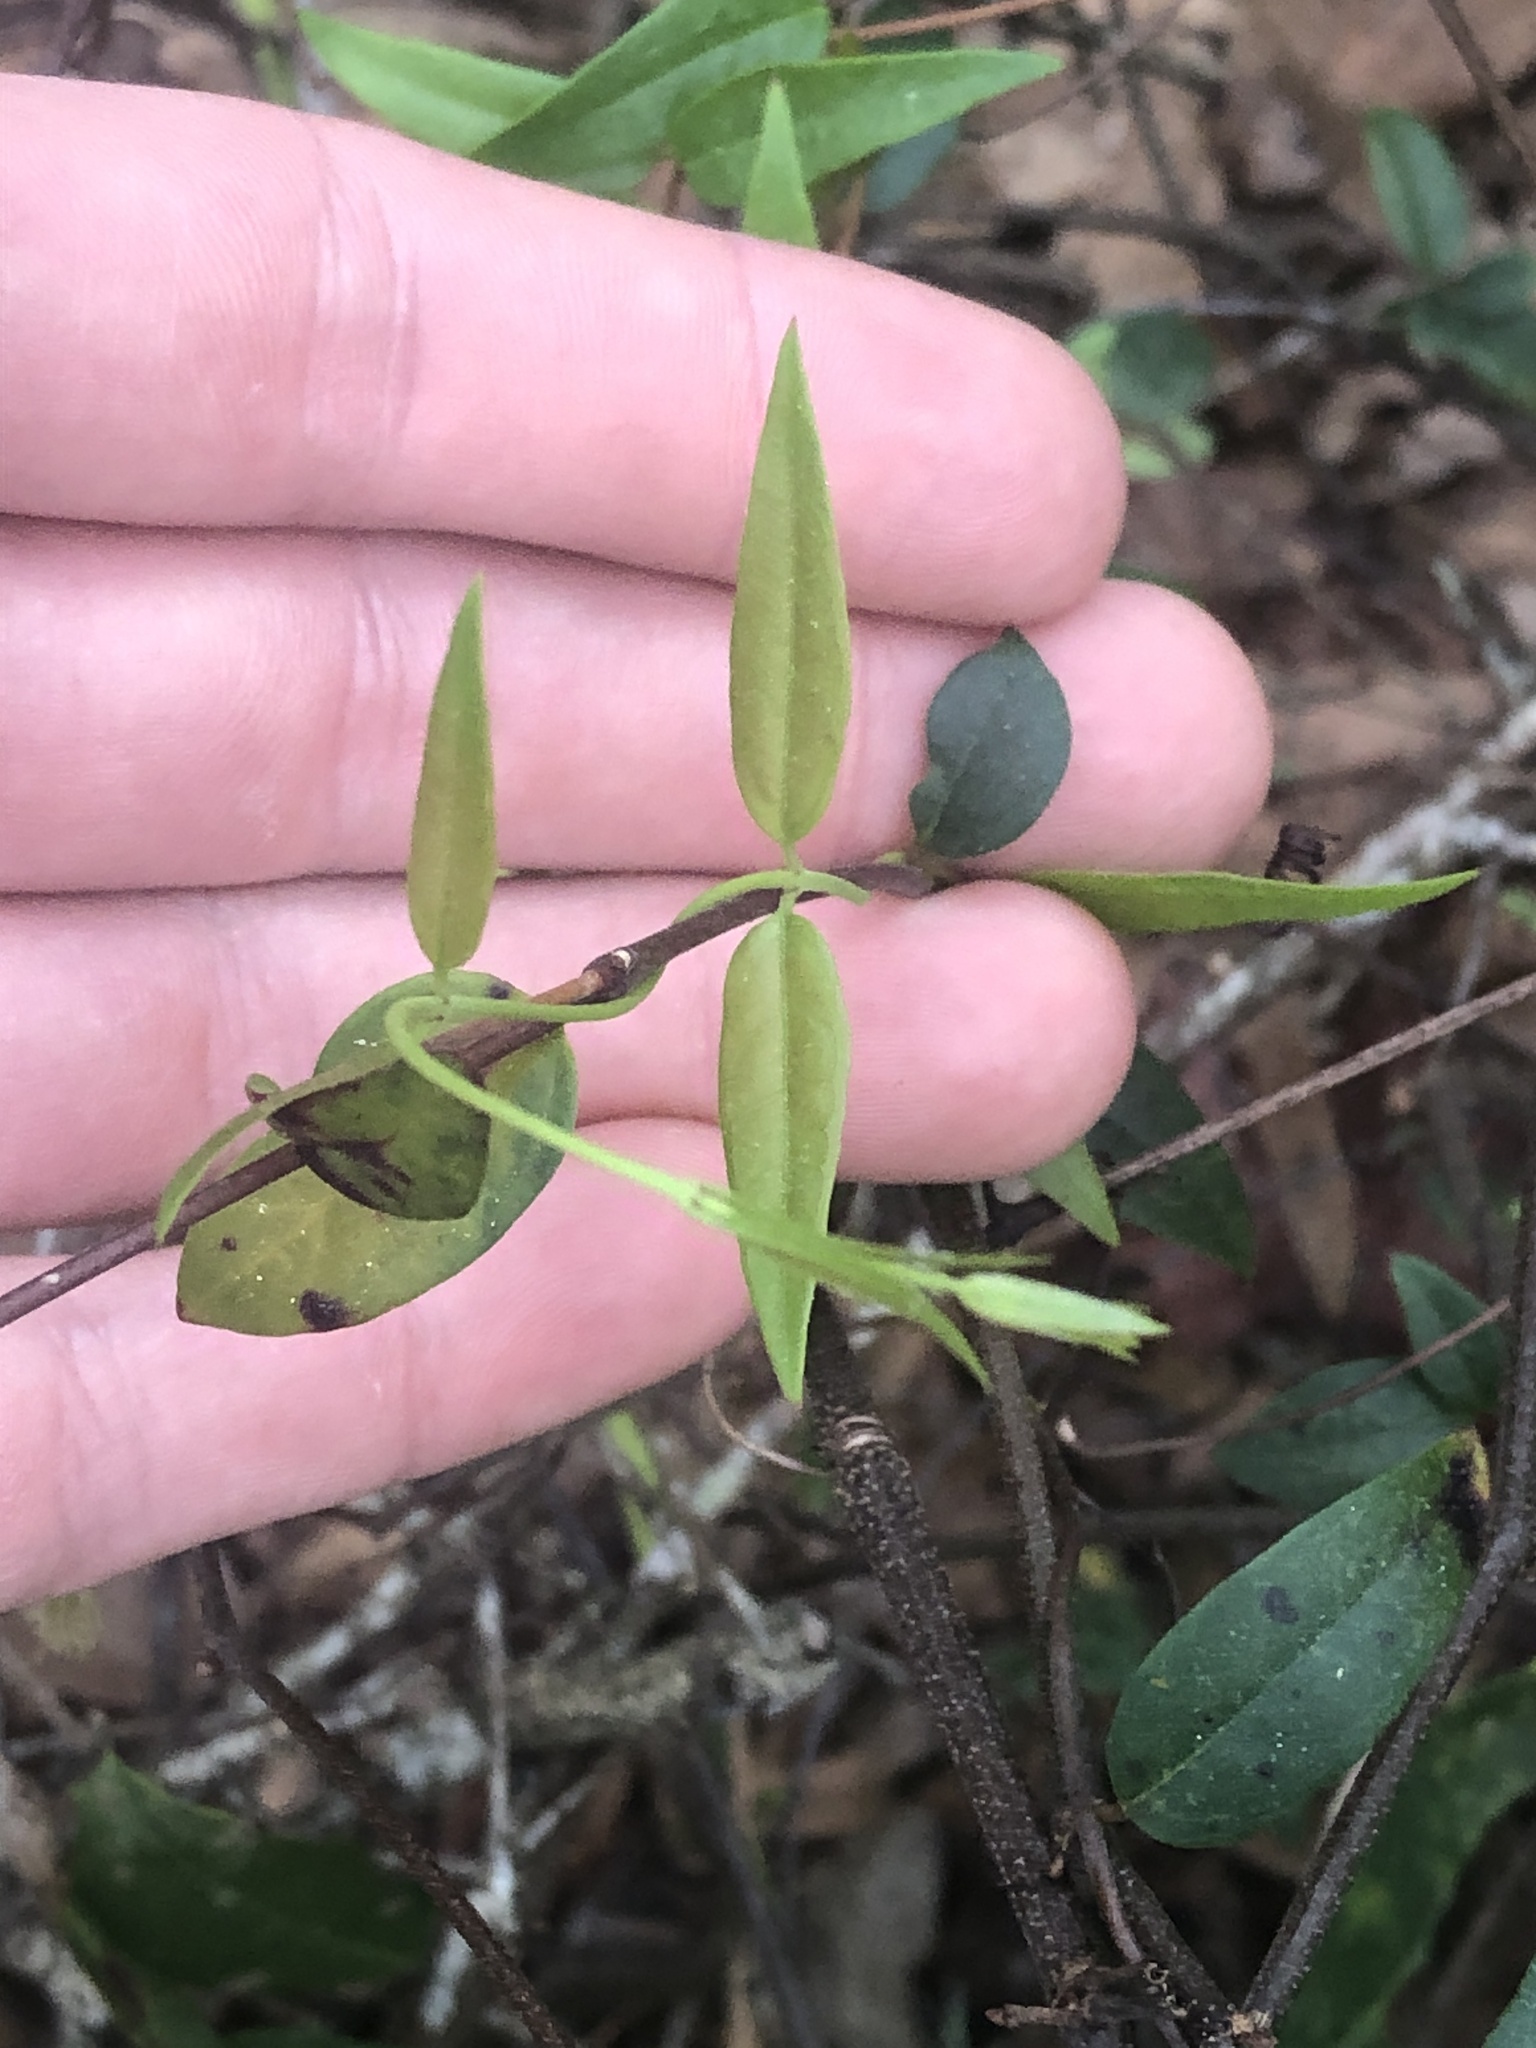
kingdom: Plantae
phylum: Tracheophyta
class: Magnoliopsida
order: Gentianales
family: Gelsemiaceae
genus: Gelsemium
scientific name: Gelsemium sempervirens
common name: Carolina-jasmine
